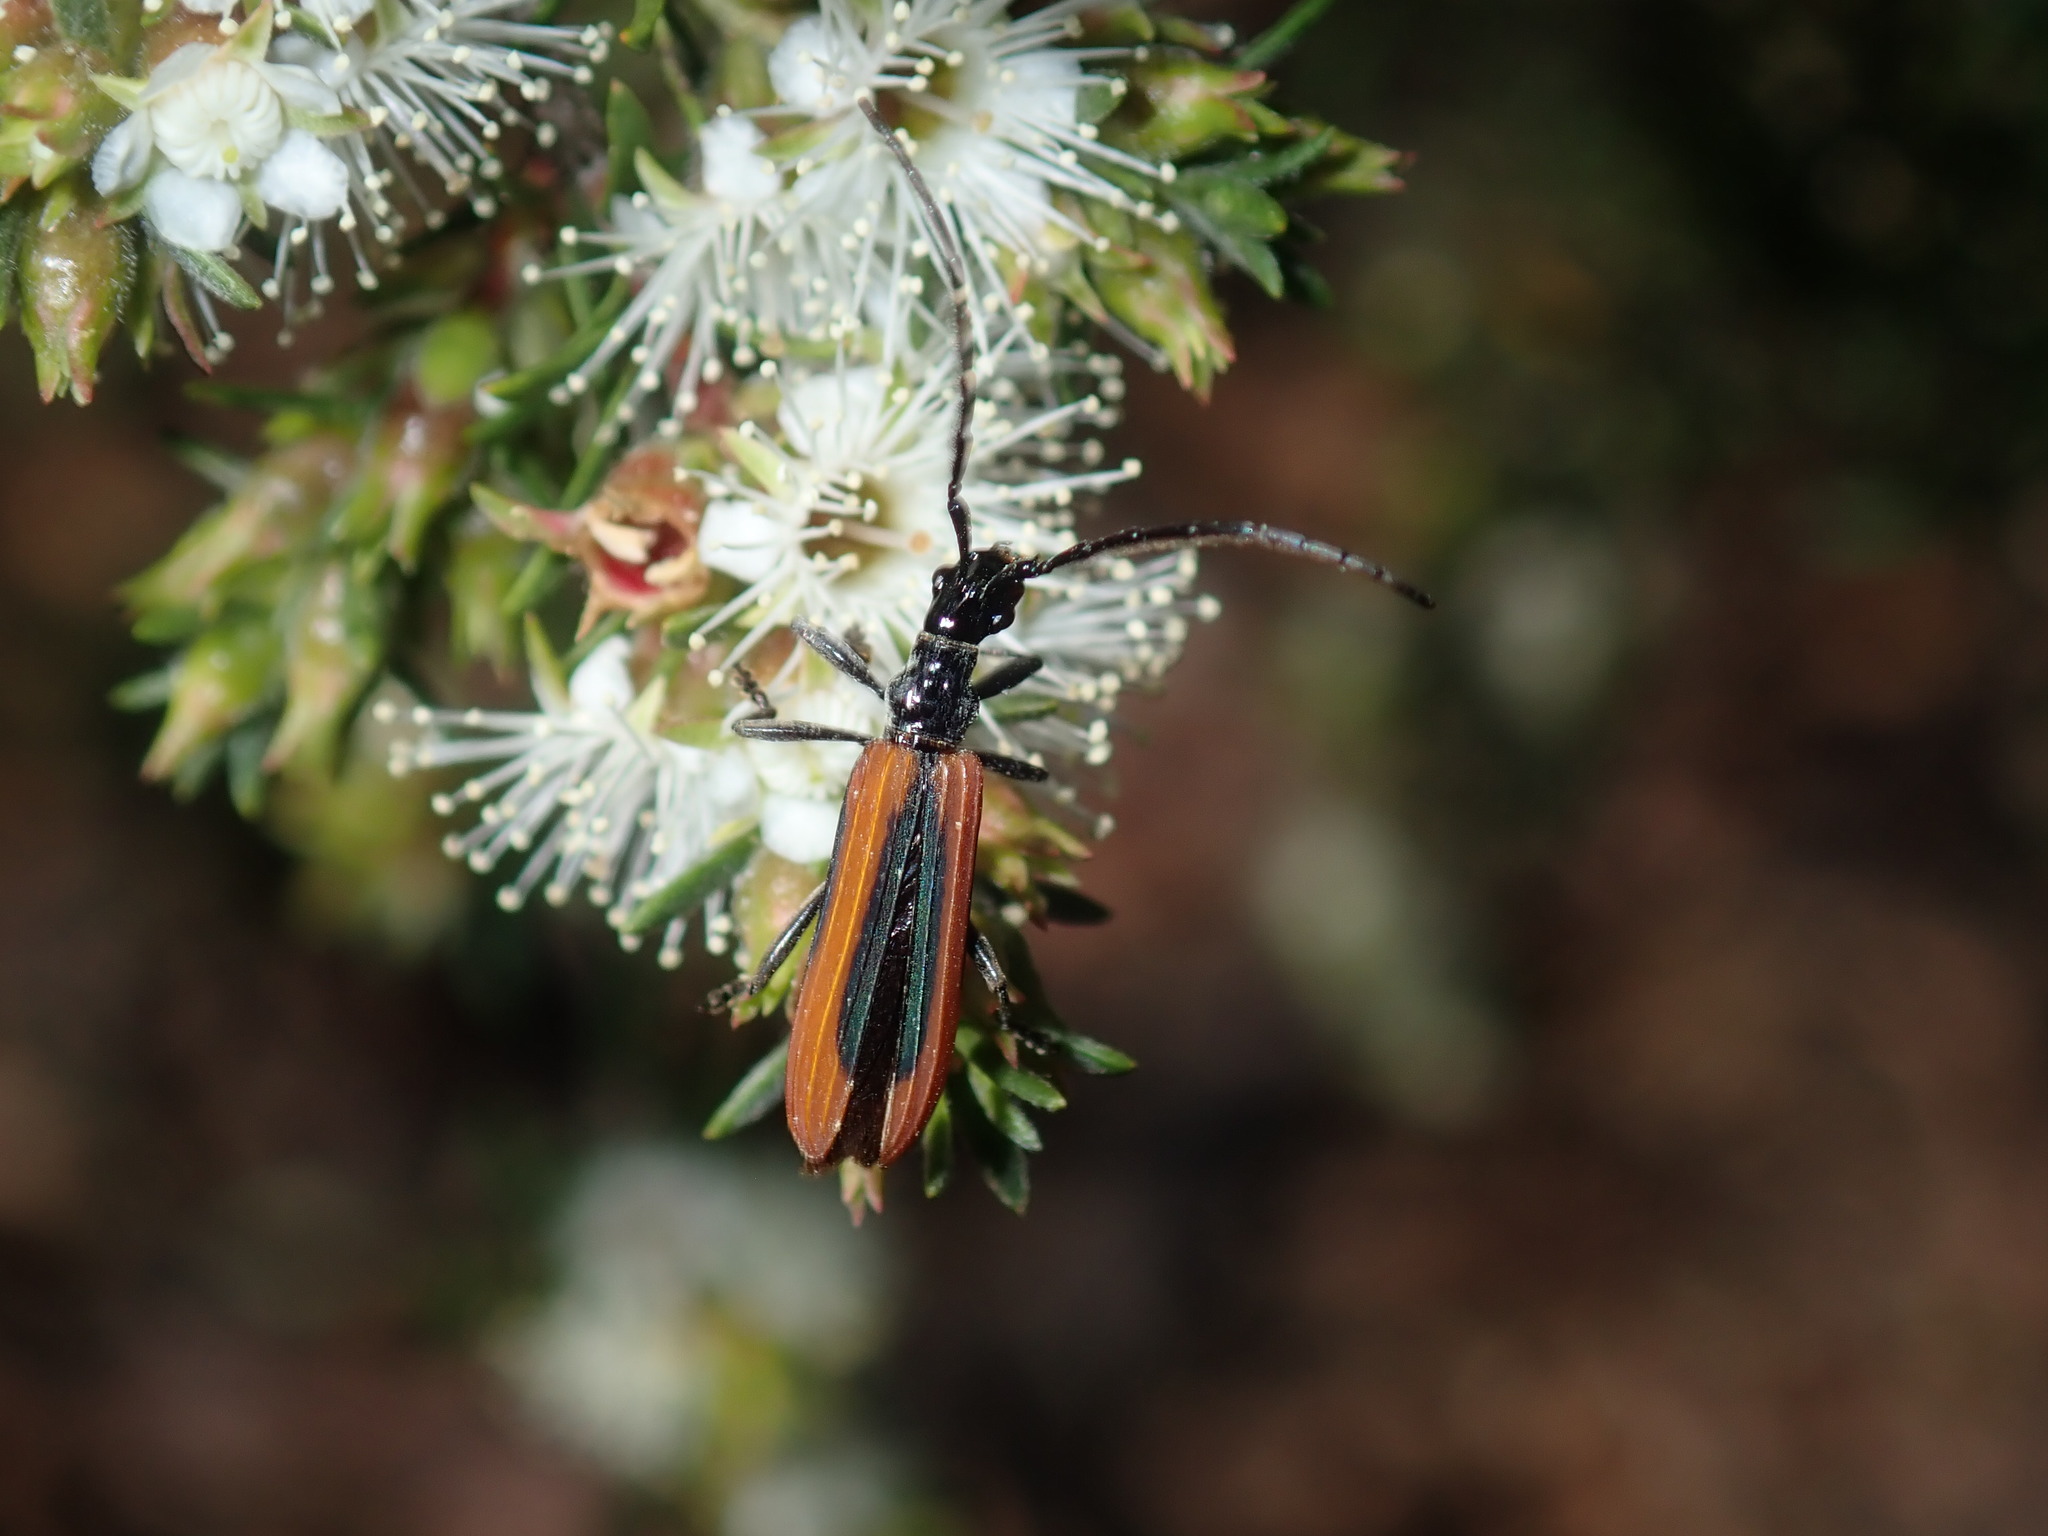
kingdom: Animalia
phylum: Arthropoda
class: Insecta
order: Coleoptera
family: Cerambycidae
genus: Stenoderus
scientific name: Stenoderus suturalis
